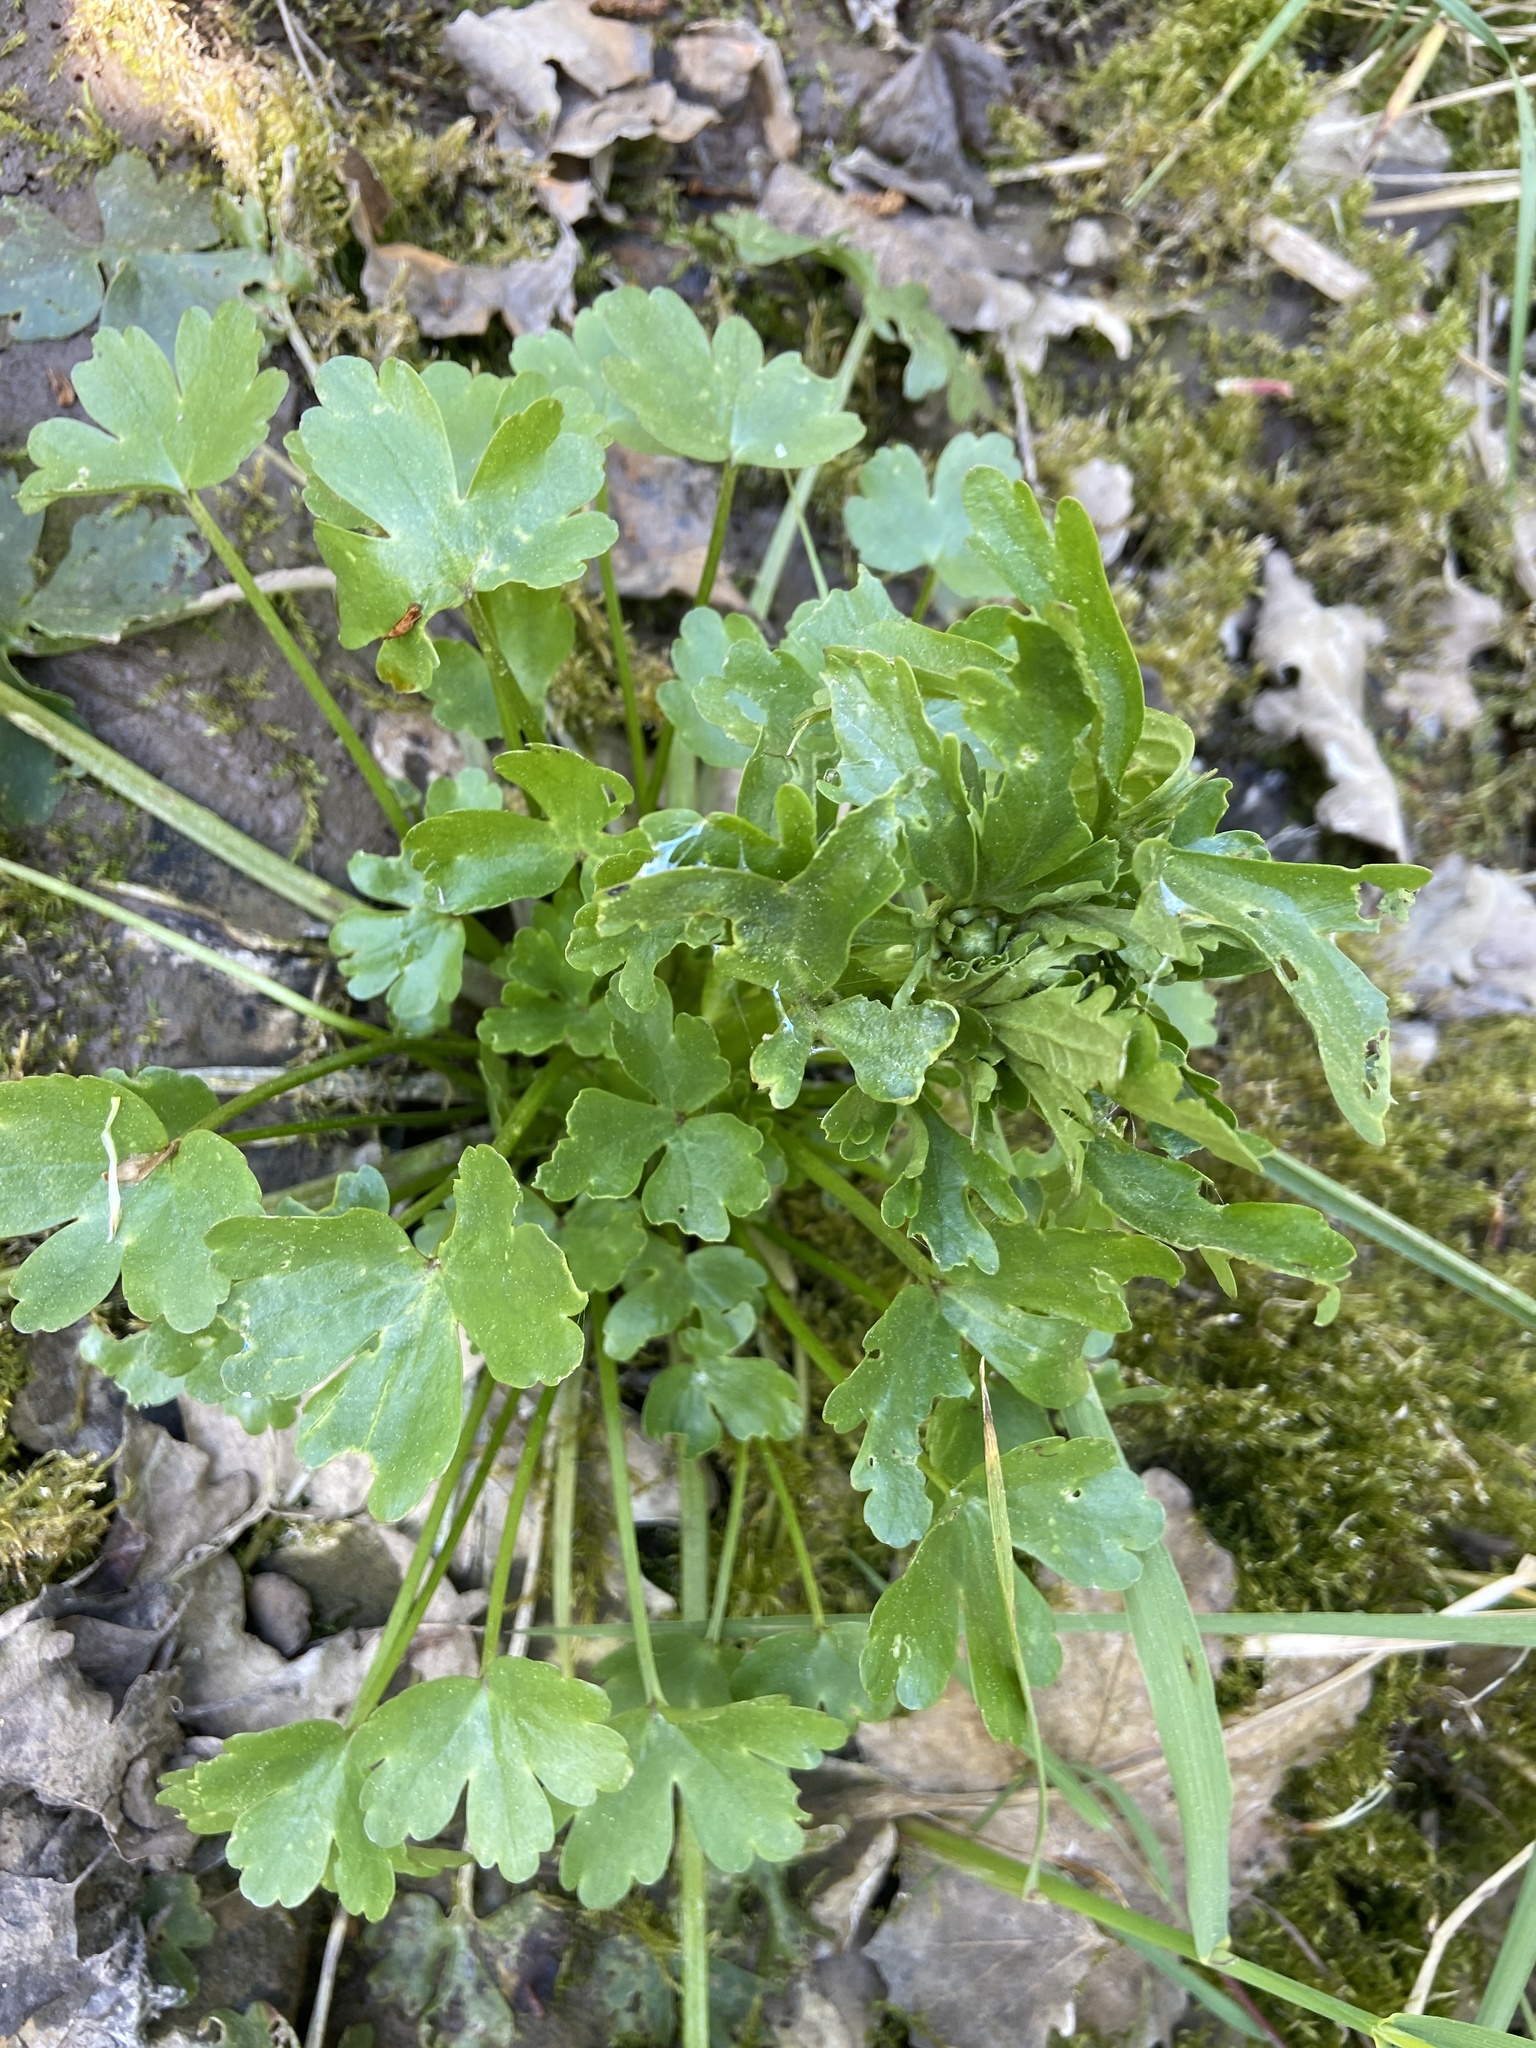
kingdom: Plantae
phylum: Tracheophyta
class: Magnoliopsida
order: Ranunculales
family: Ranunculaceae
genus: Ranunculus
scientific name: Ranunculus sceleratus
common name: Celery-leaved buttercup
